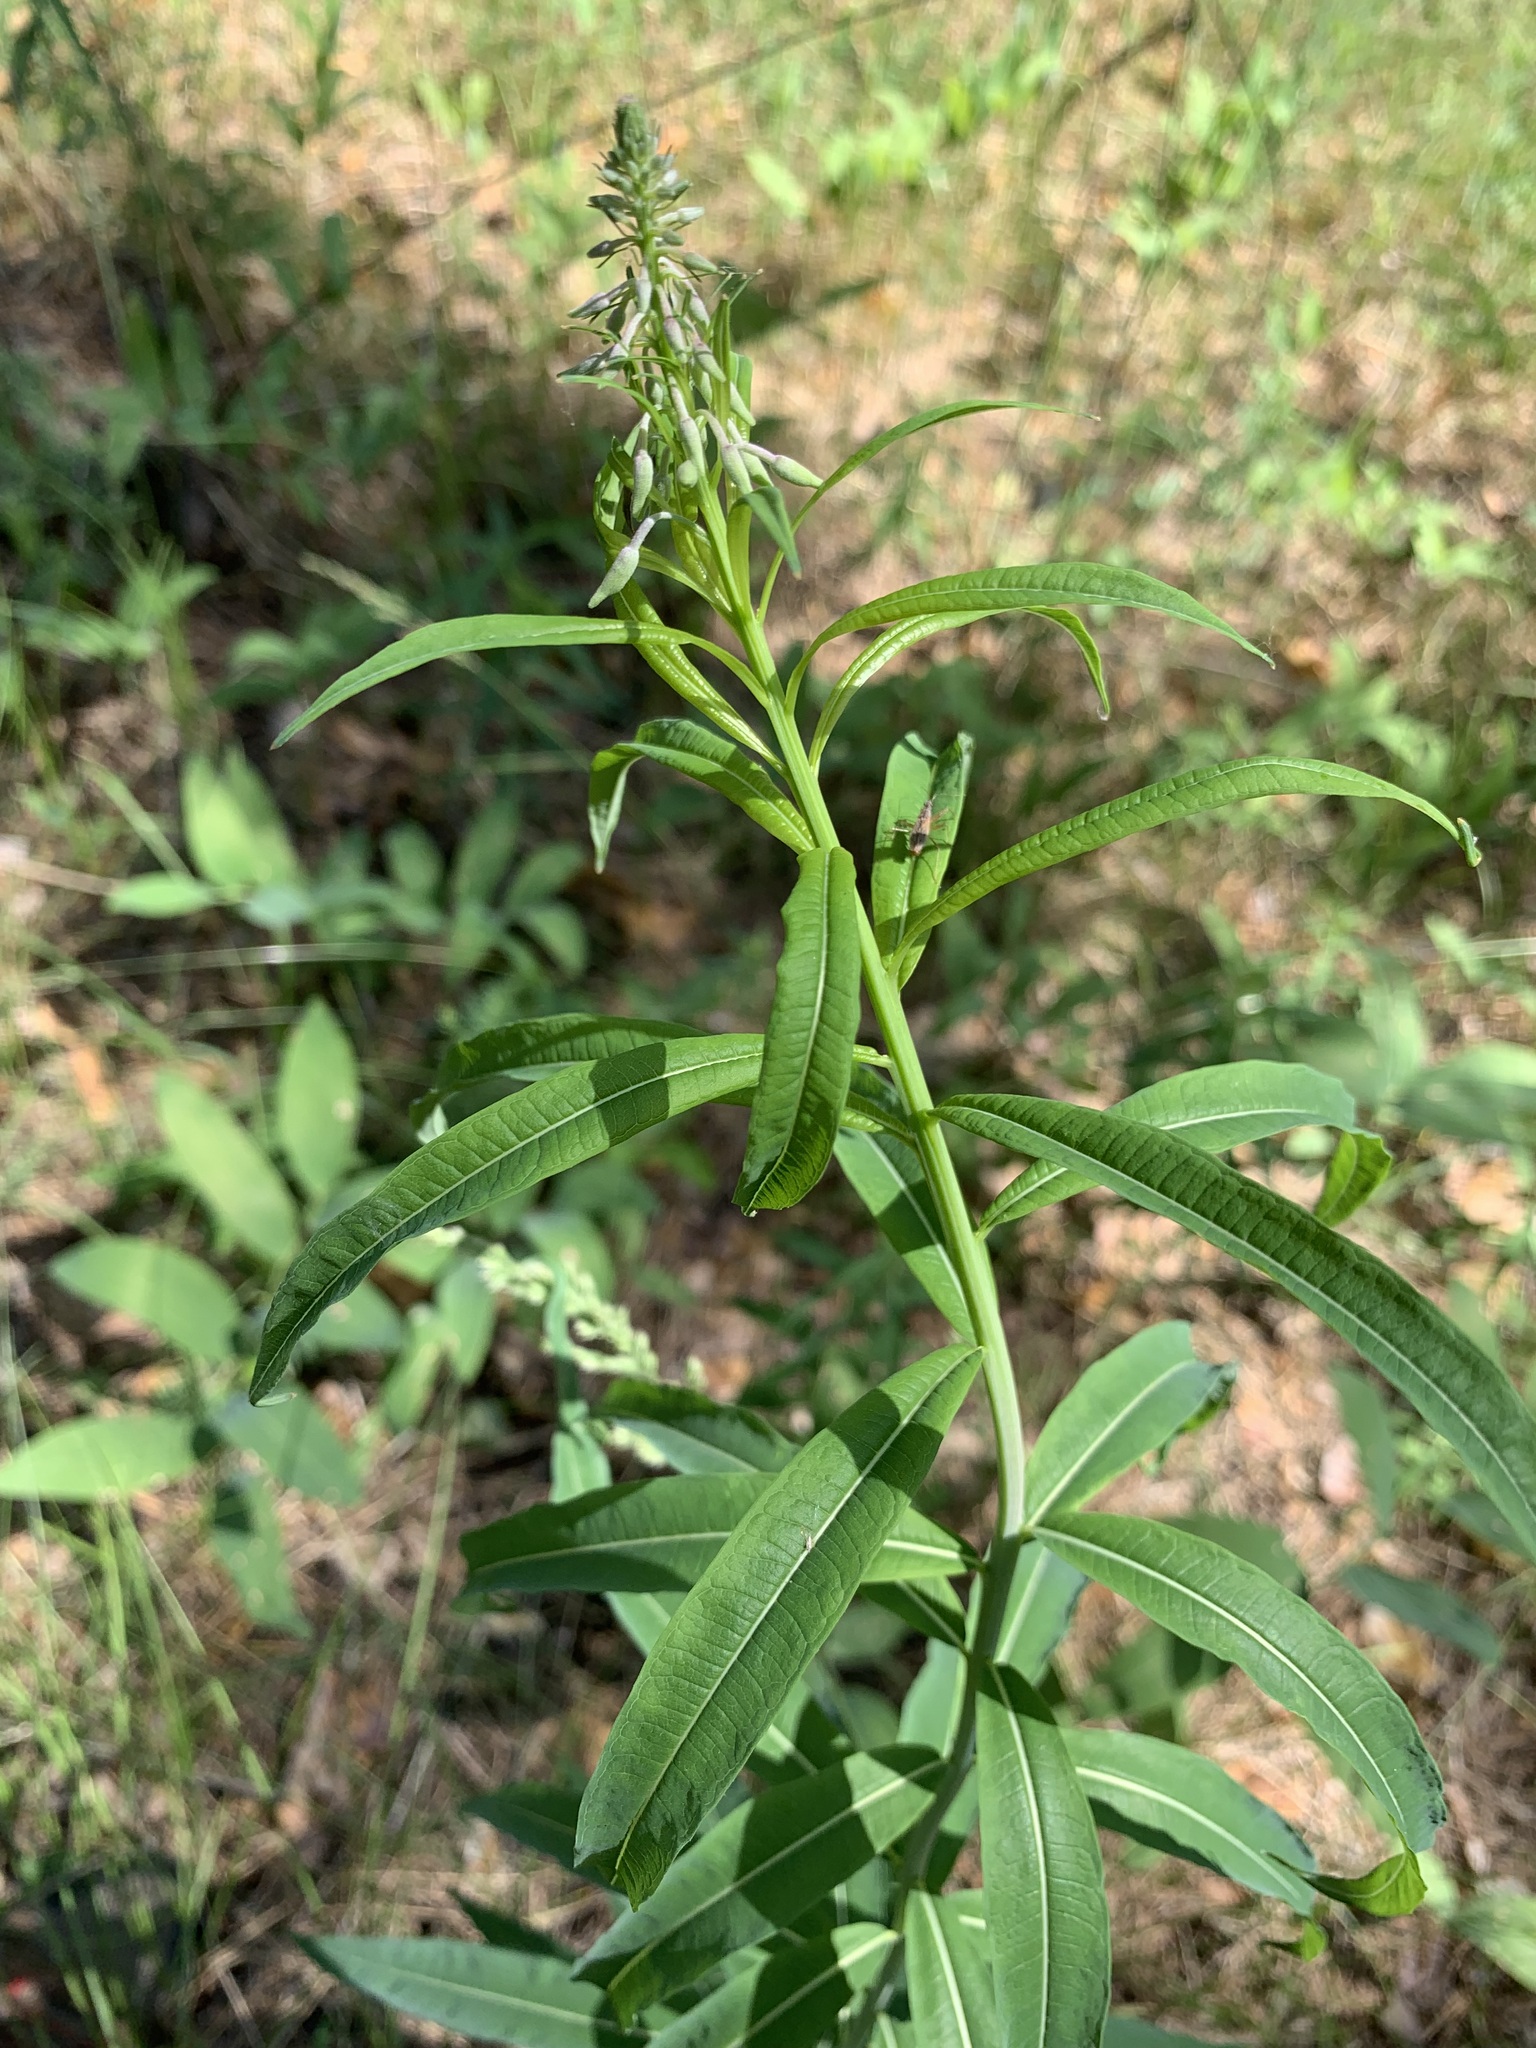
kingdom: Plantae
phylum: Tracheophyta
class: Magnoliopsida
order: Myrtales
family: Onagraceae
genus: Chamaenerion
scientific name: Chamaenerion angustifolium
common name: Fireweed
